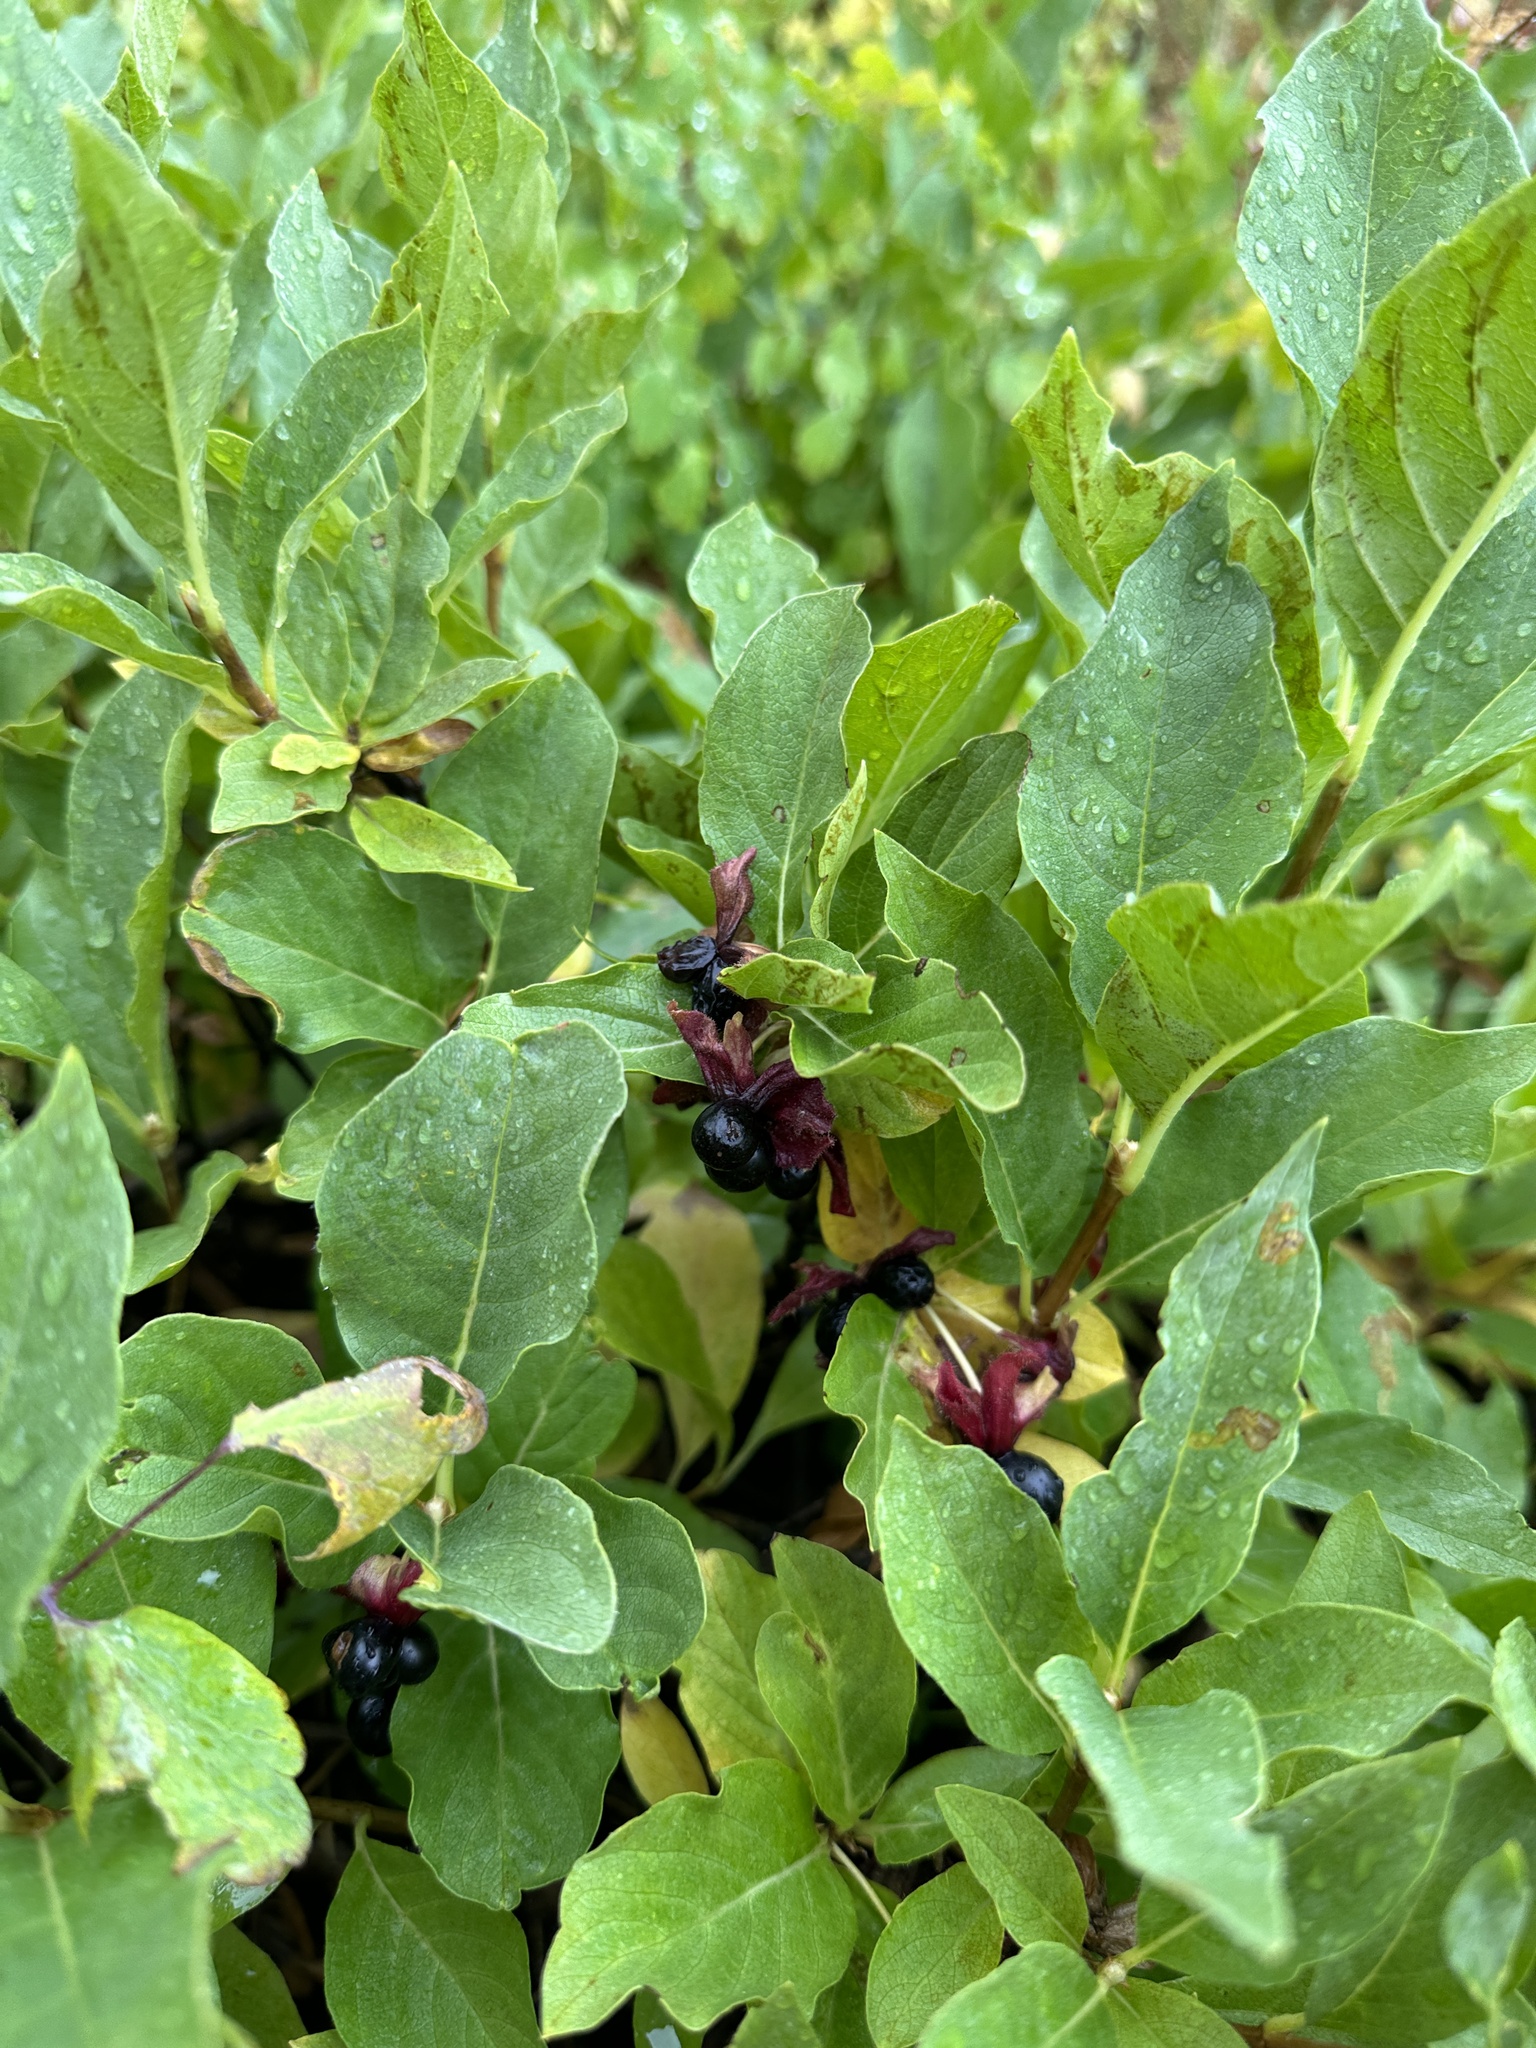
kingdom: Plantae
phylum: Tracheophyta
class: Magnoliopsida
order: Dipsacales
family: Caprifoliaceae
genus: Lonicera
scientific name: Lonicera involucrata
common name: Californian honeysuckle
